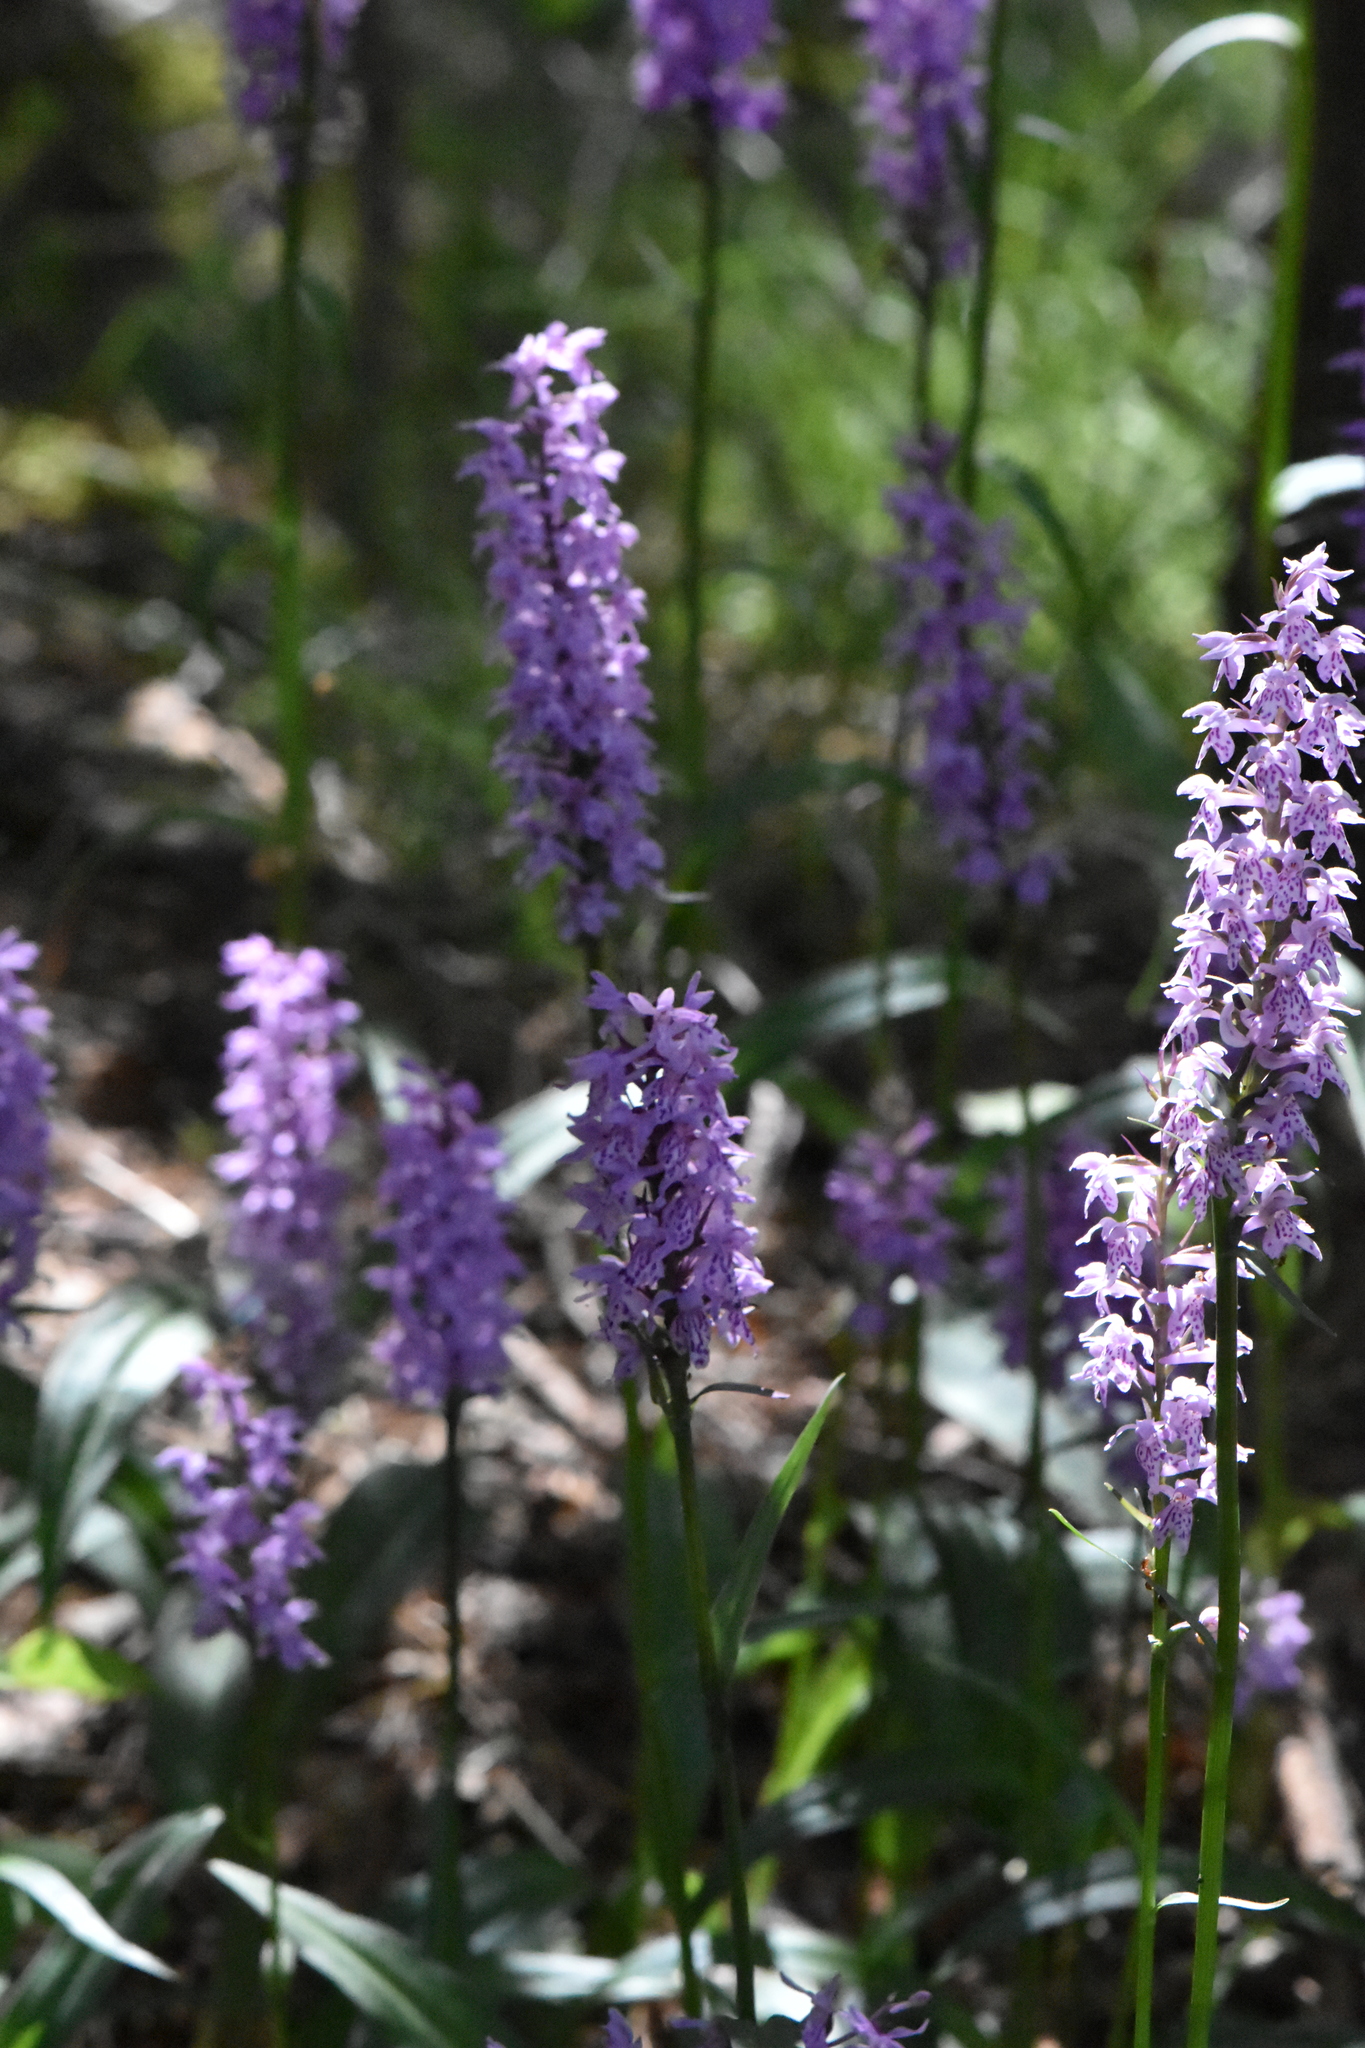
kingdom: Plantae
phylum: Tracheophyta
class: Liliopsida
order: Asparagales
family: Orchidaceae
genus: Dactylorhiza
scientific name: Dactylorhiza maculata
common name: Heath spotted-orchid
